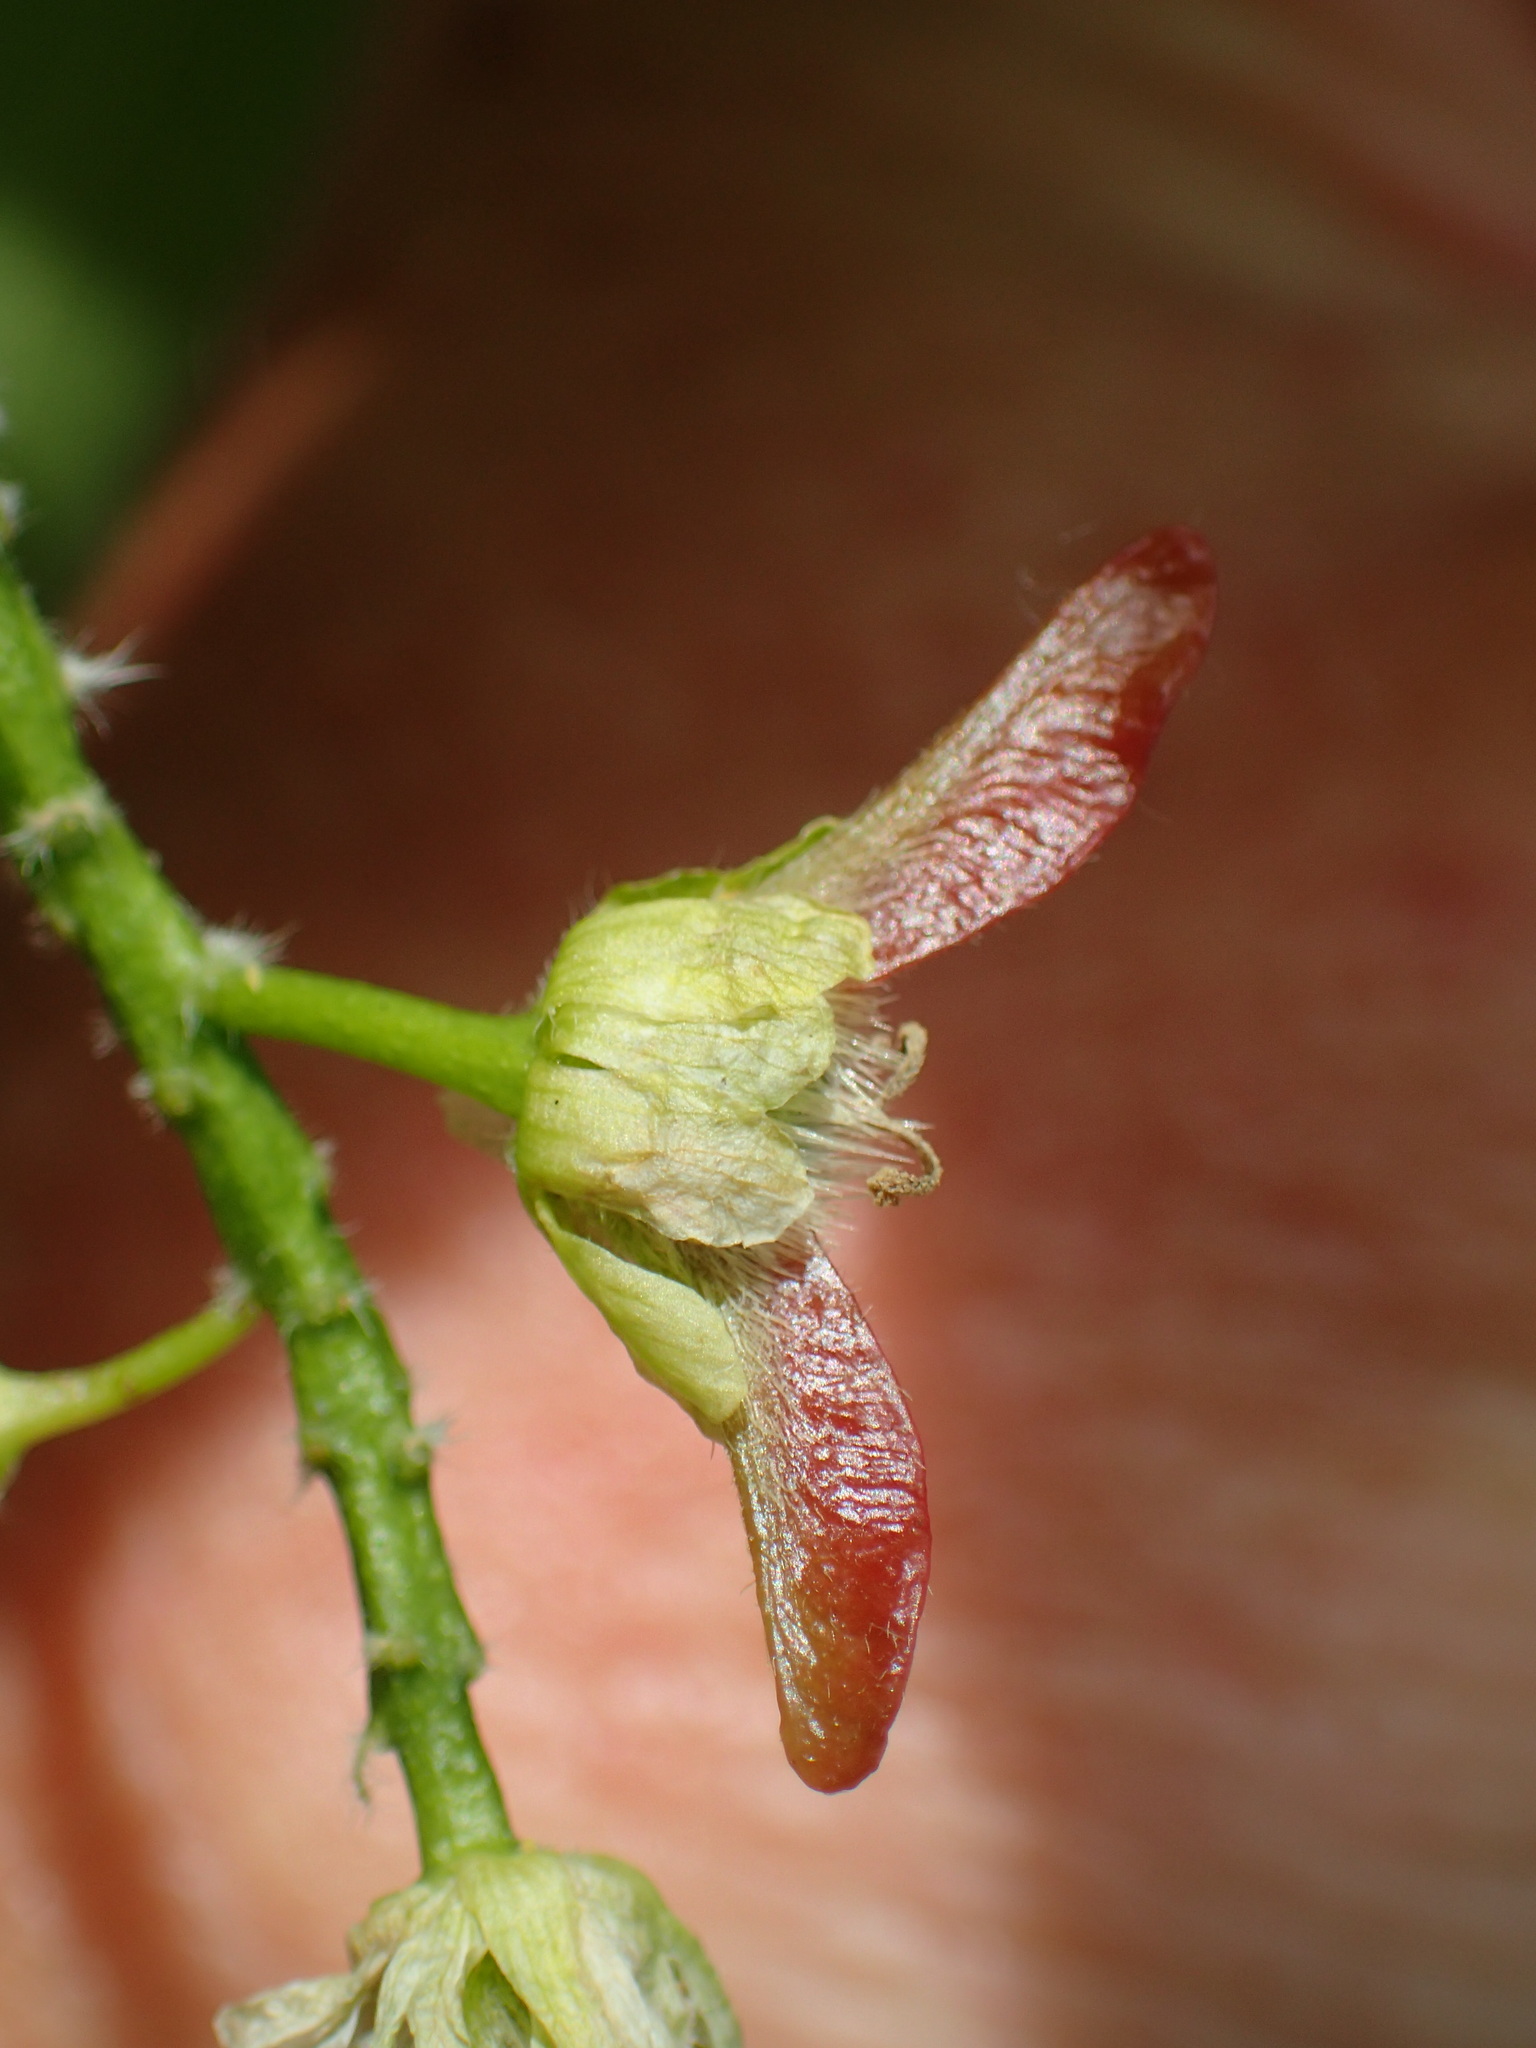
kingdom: Plantae
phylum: Tracheophyta
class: Magnoliopsida
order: Sapindales
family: Sapindaceae
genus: Acer
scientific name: Acer macrophyllum
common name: Oregon maple
